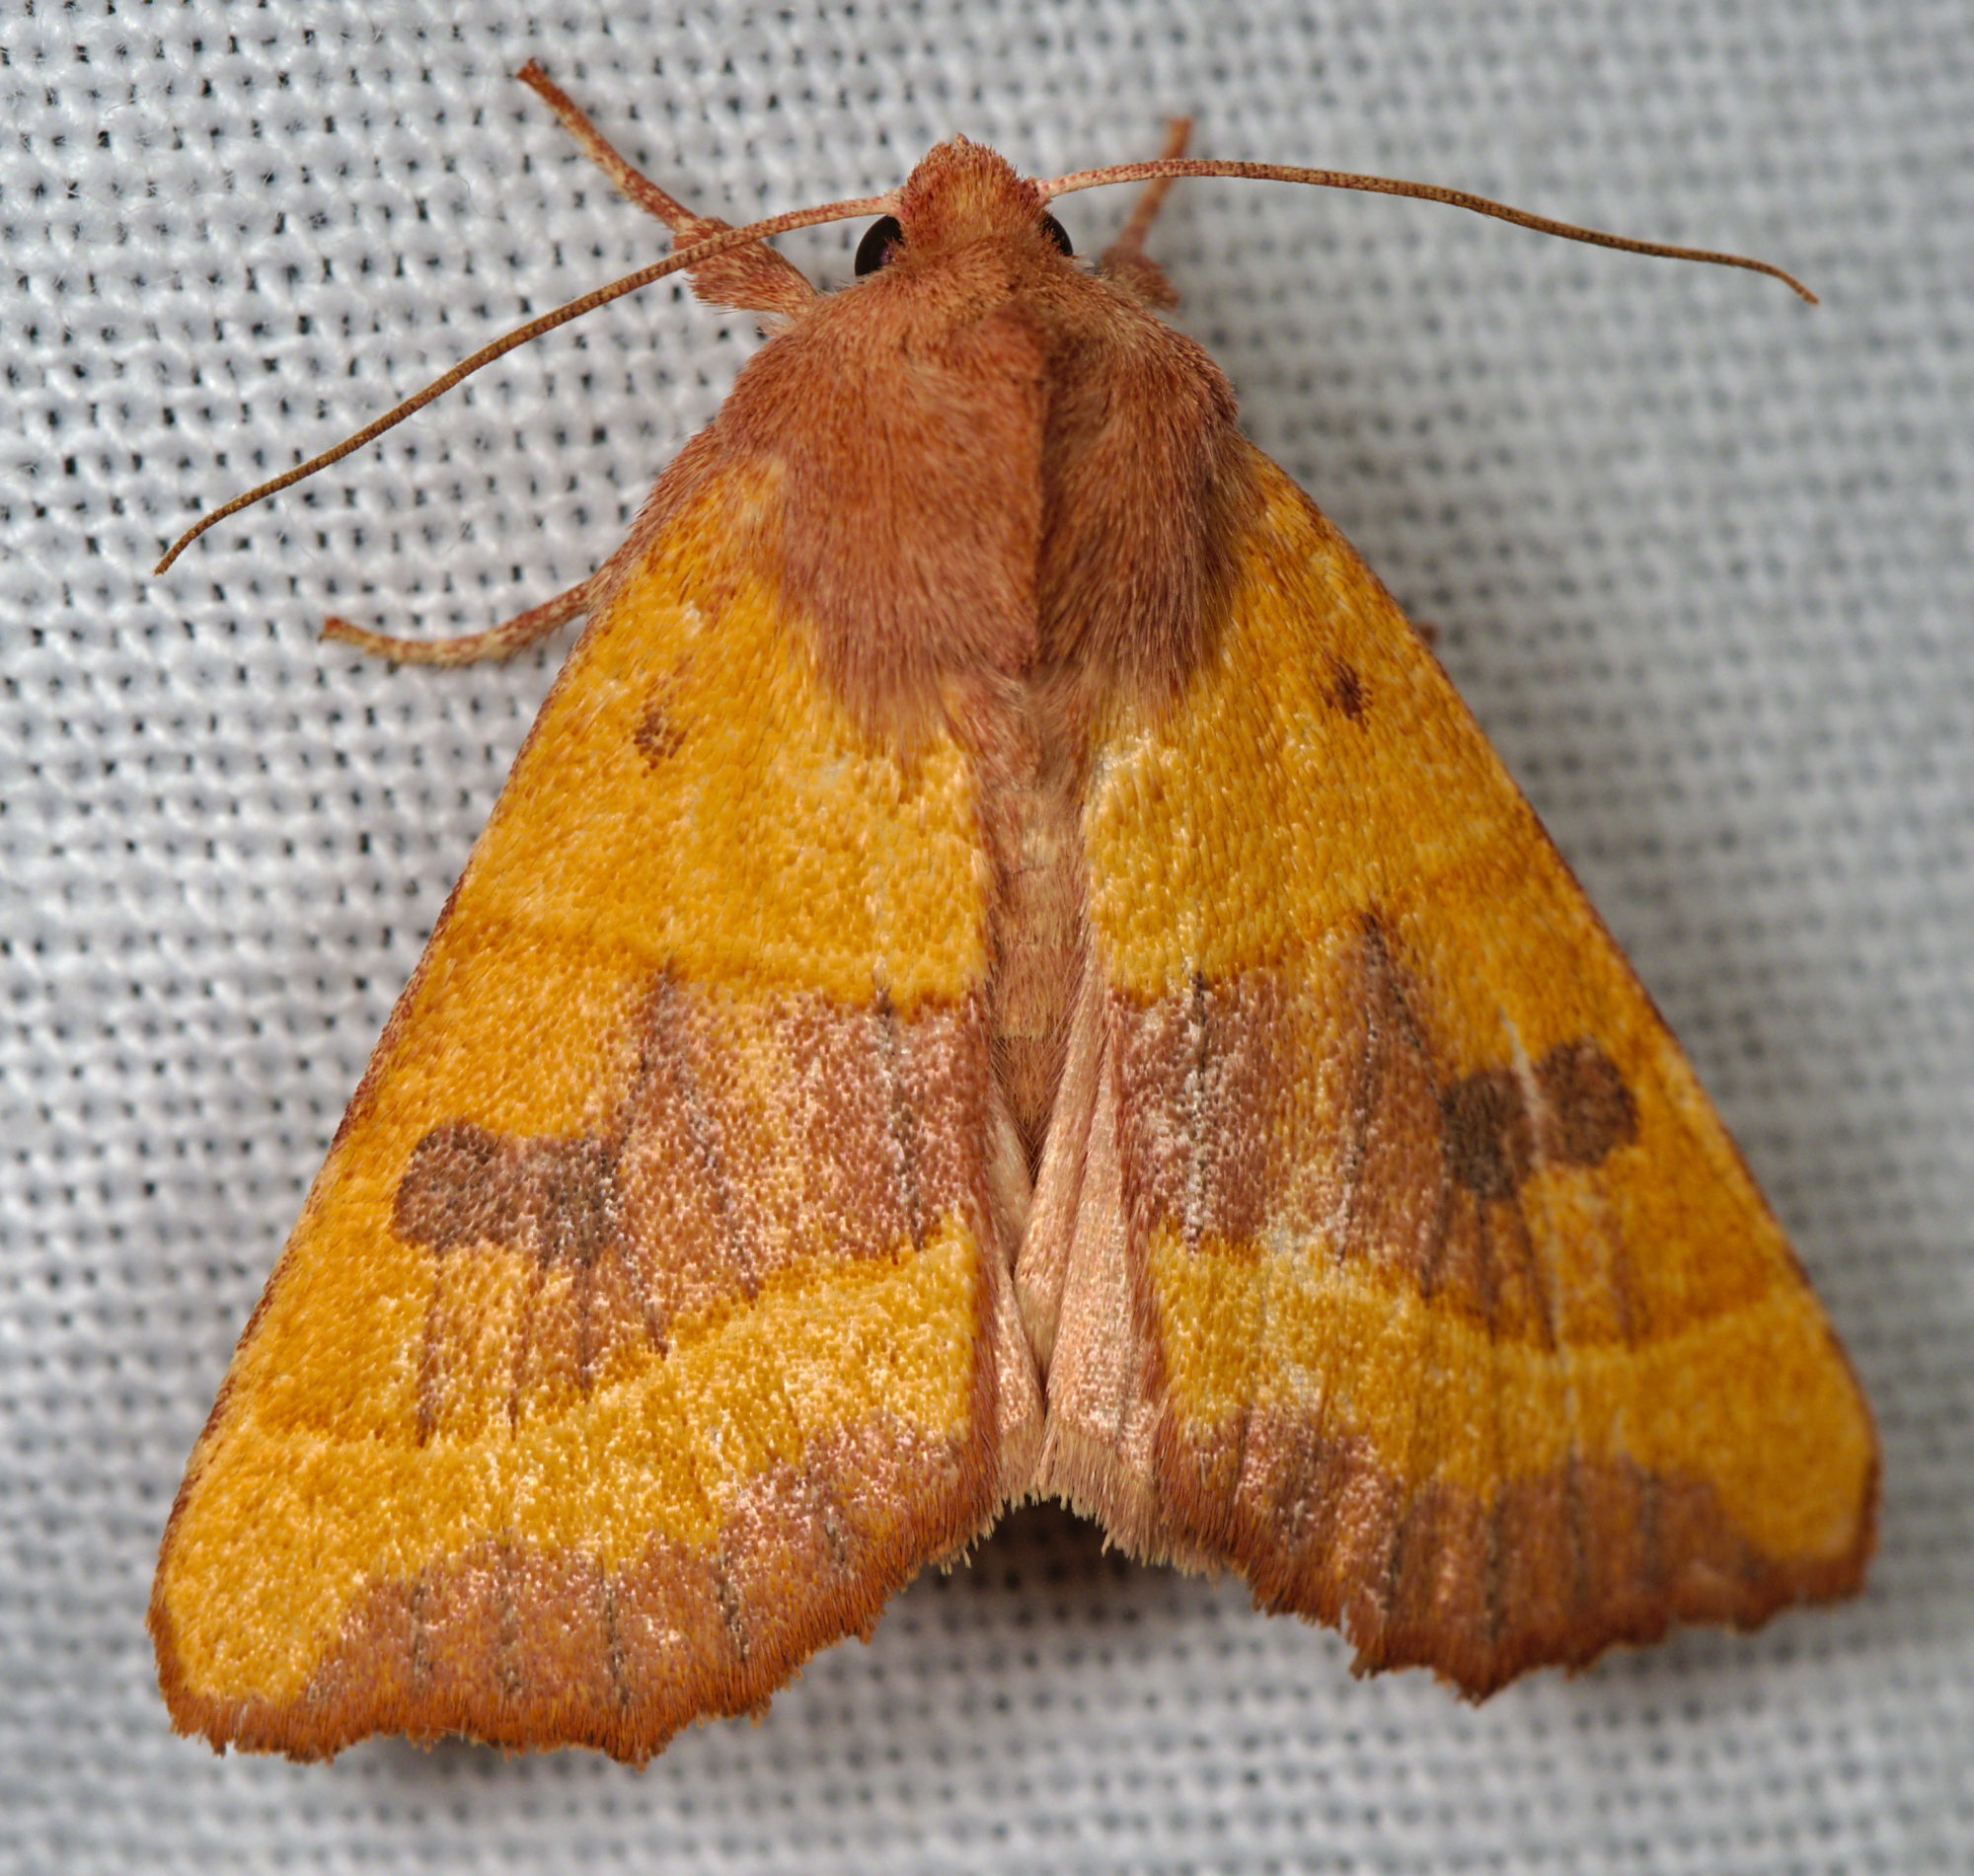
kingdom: Animalia
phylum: Arthropoda
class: Insecta
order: Lepidoptera
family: Noctuidae
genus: Atethmia
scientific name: Atethmia centrago
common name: Centre-barred sallow
